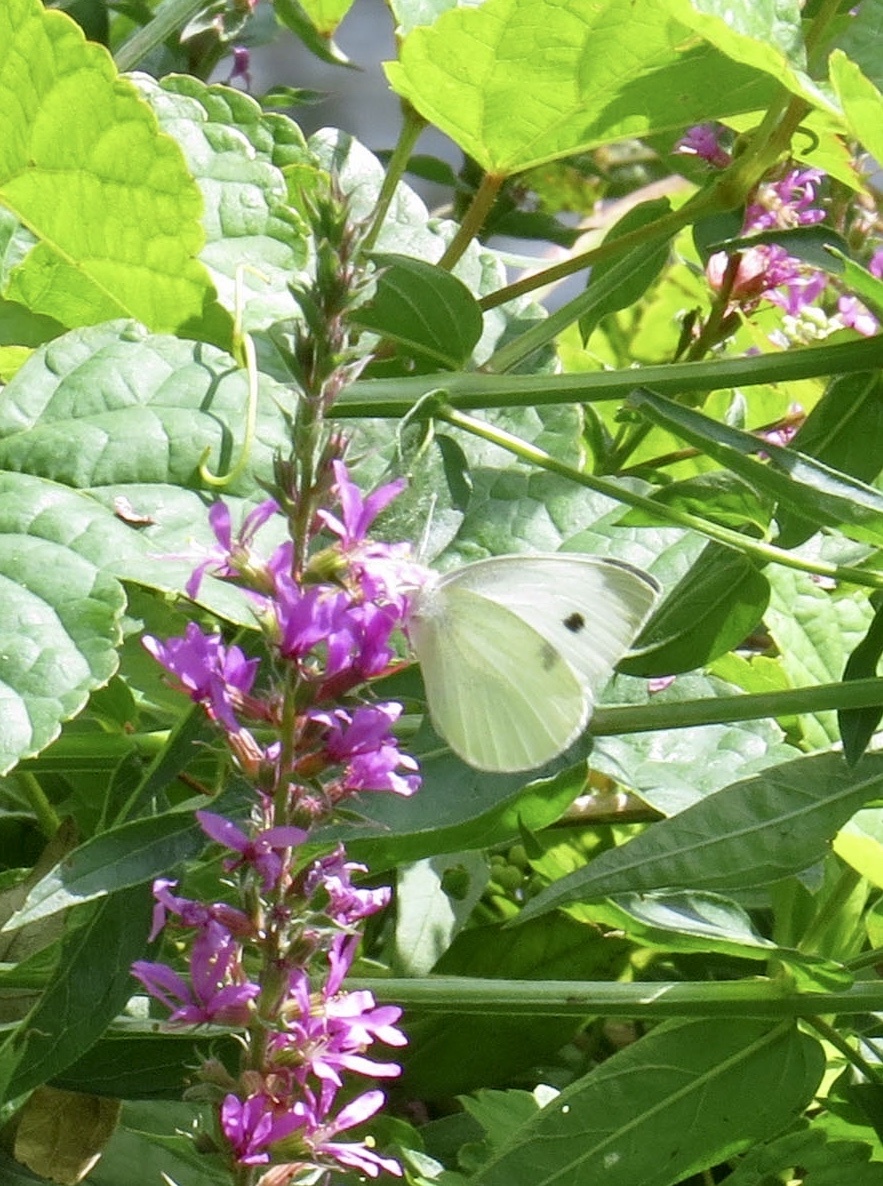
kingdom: Animalia
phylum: Arthropoda
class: Insecta
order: Lepidoptera
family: Pieridae
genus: Pieris
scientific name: Pieris rapae
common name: Small white
